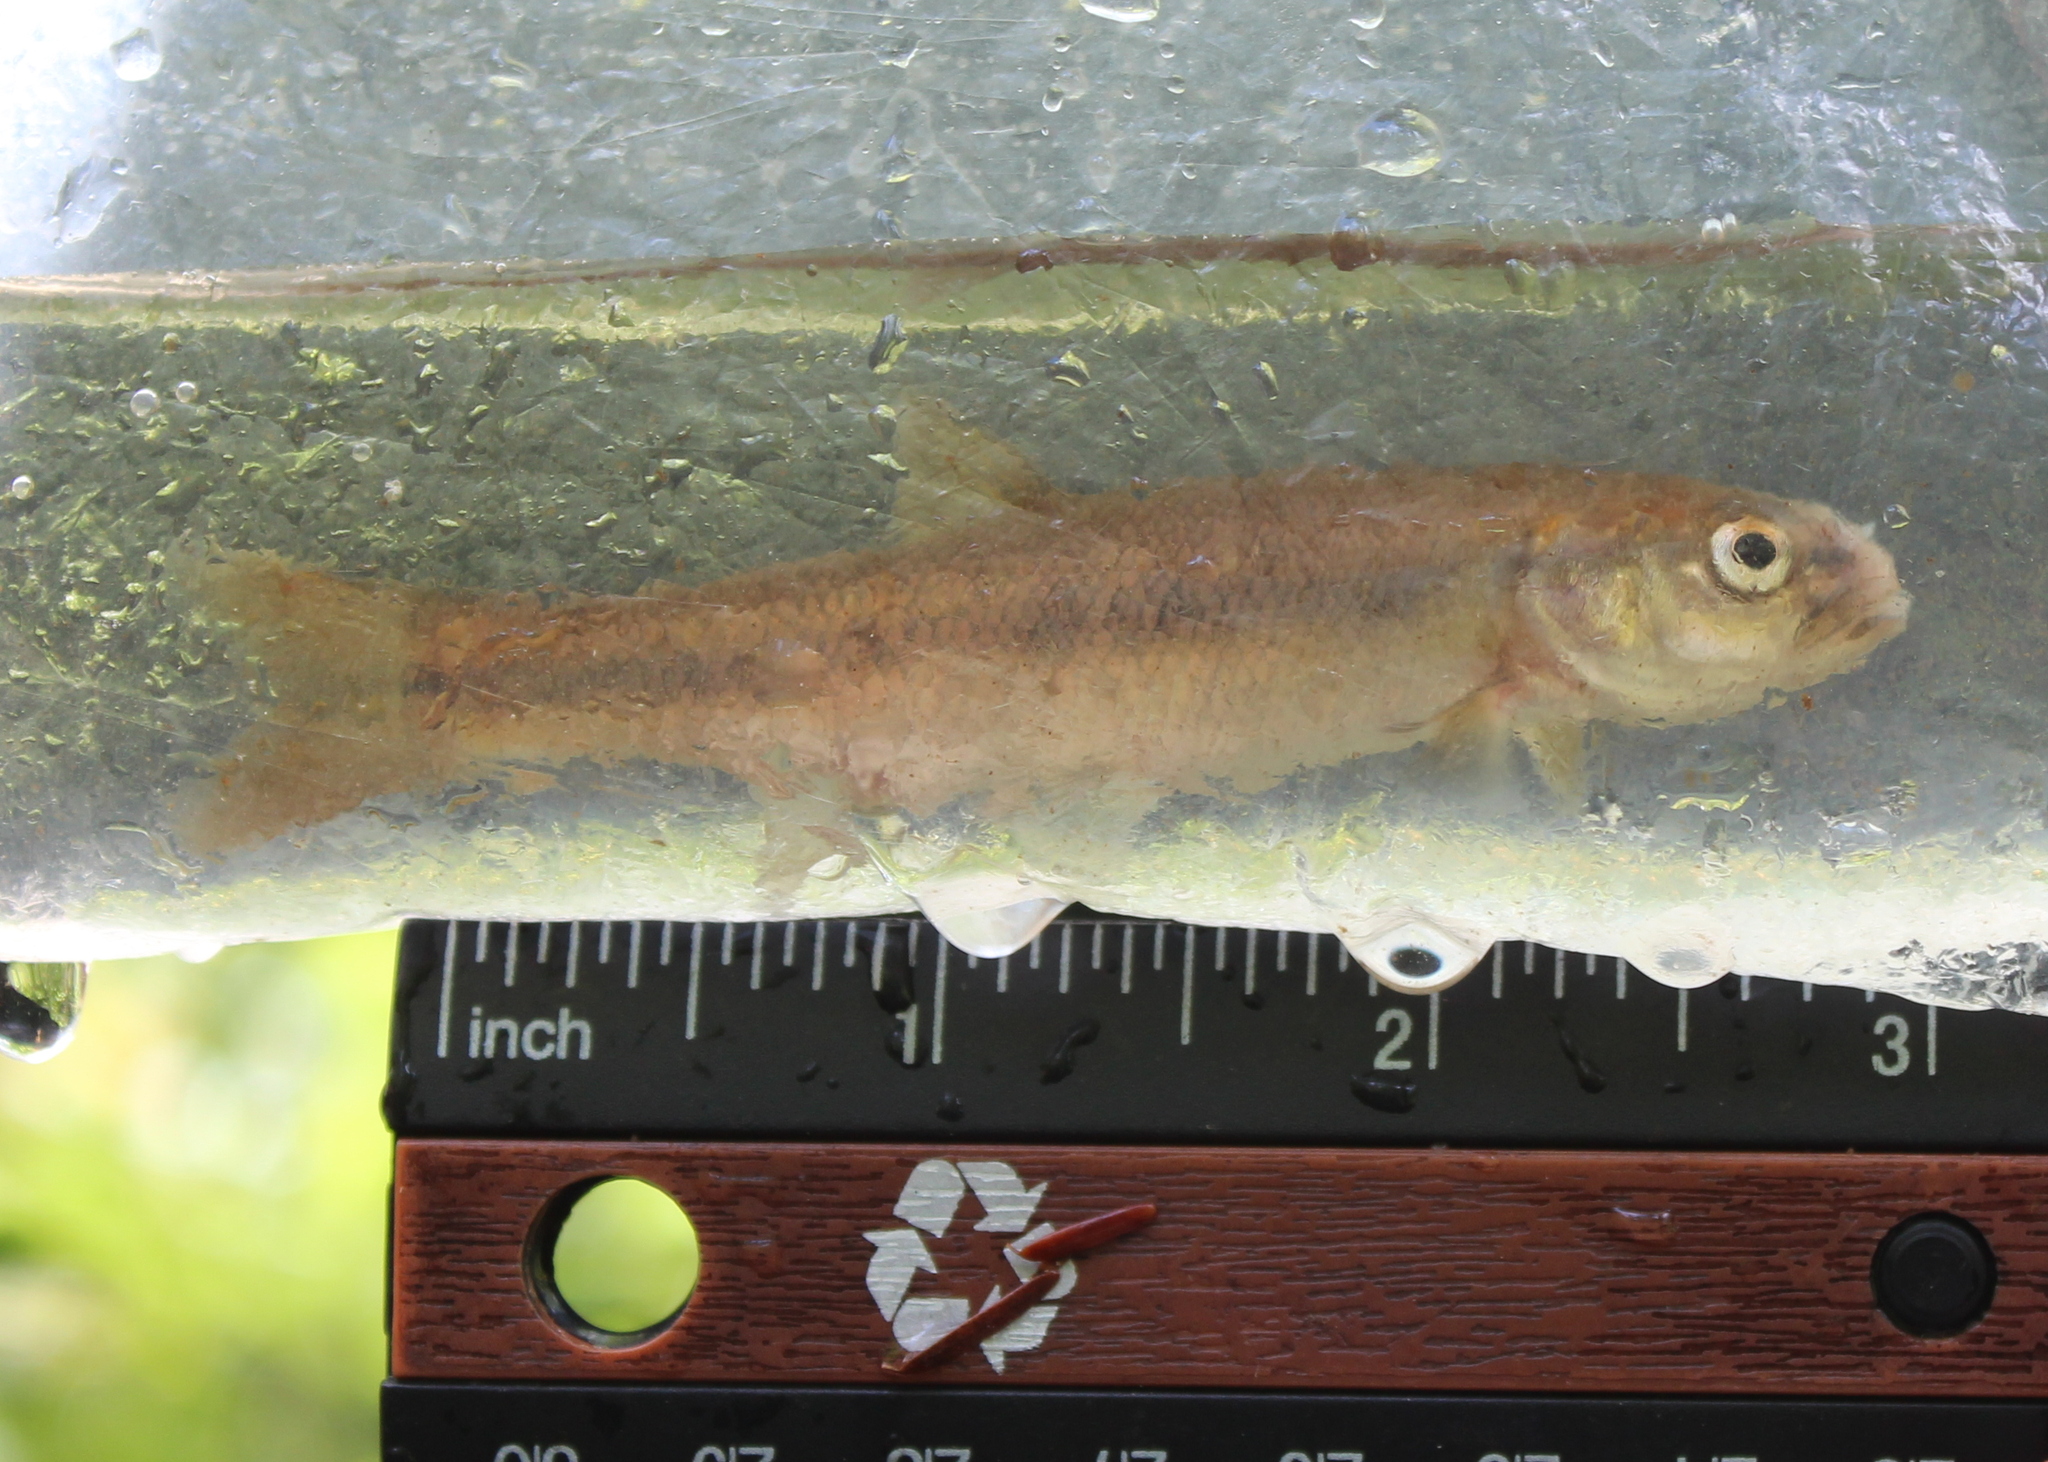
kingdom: Animalia
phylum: Chordata
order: Cypriniformes
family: Cyprinidae
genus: Semotilus
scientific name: Semotilus atromaculatus
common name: Creek chub
